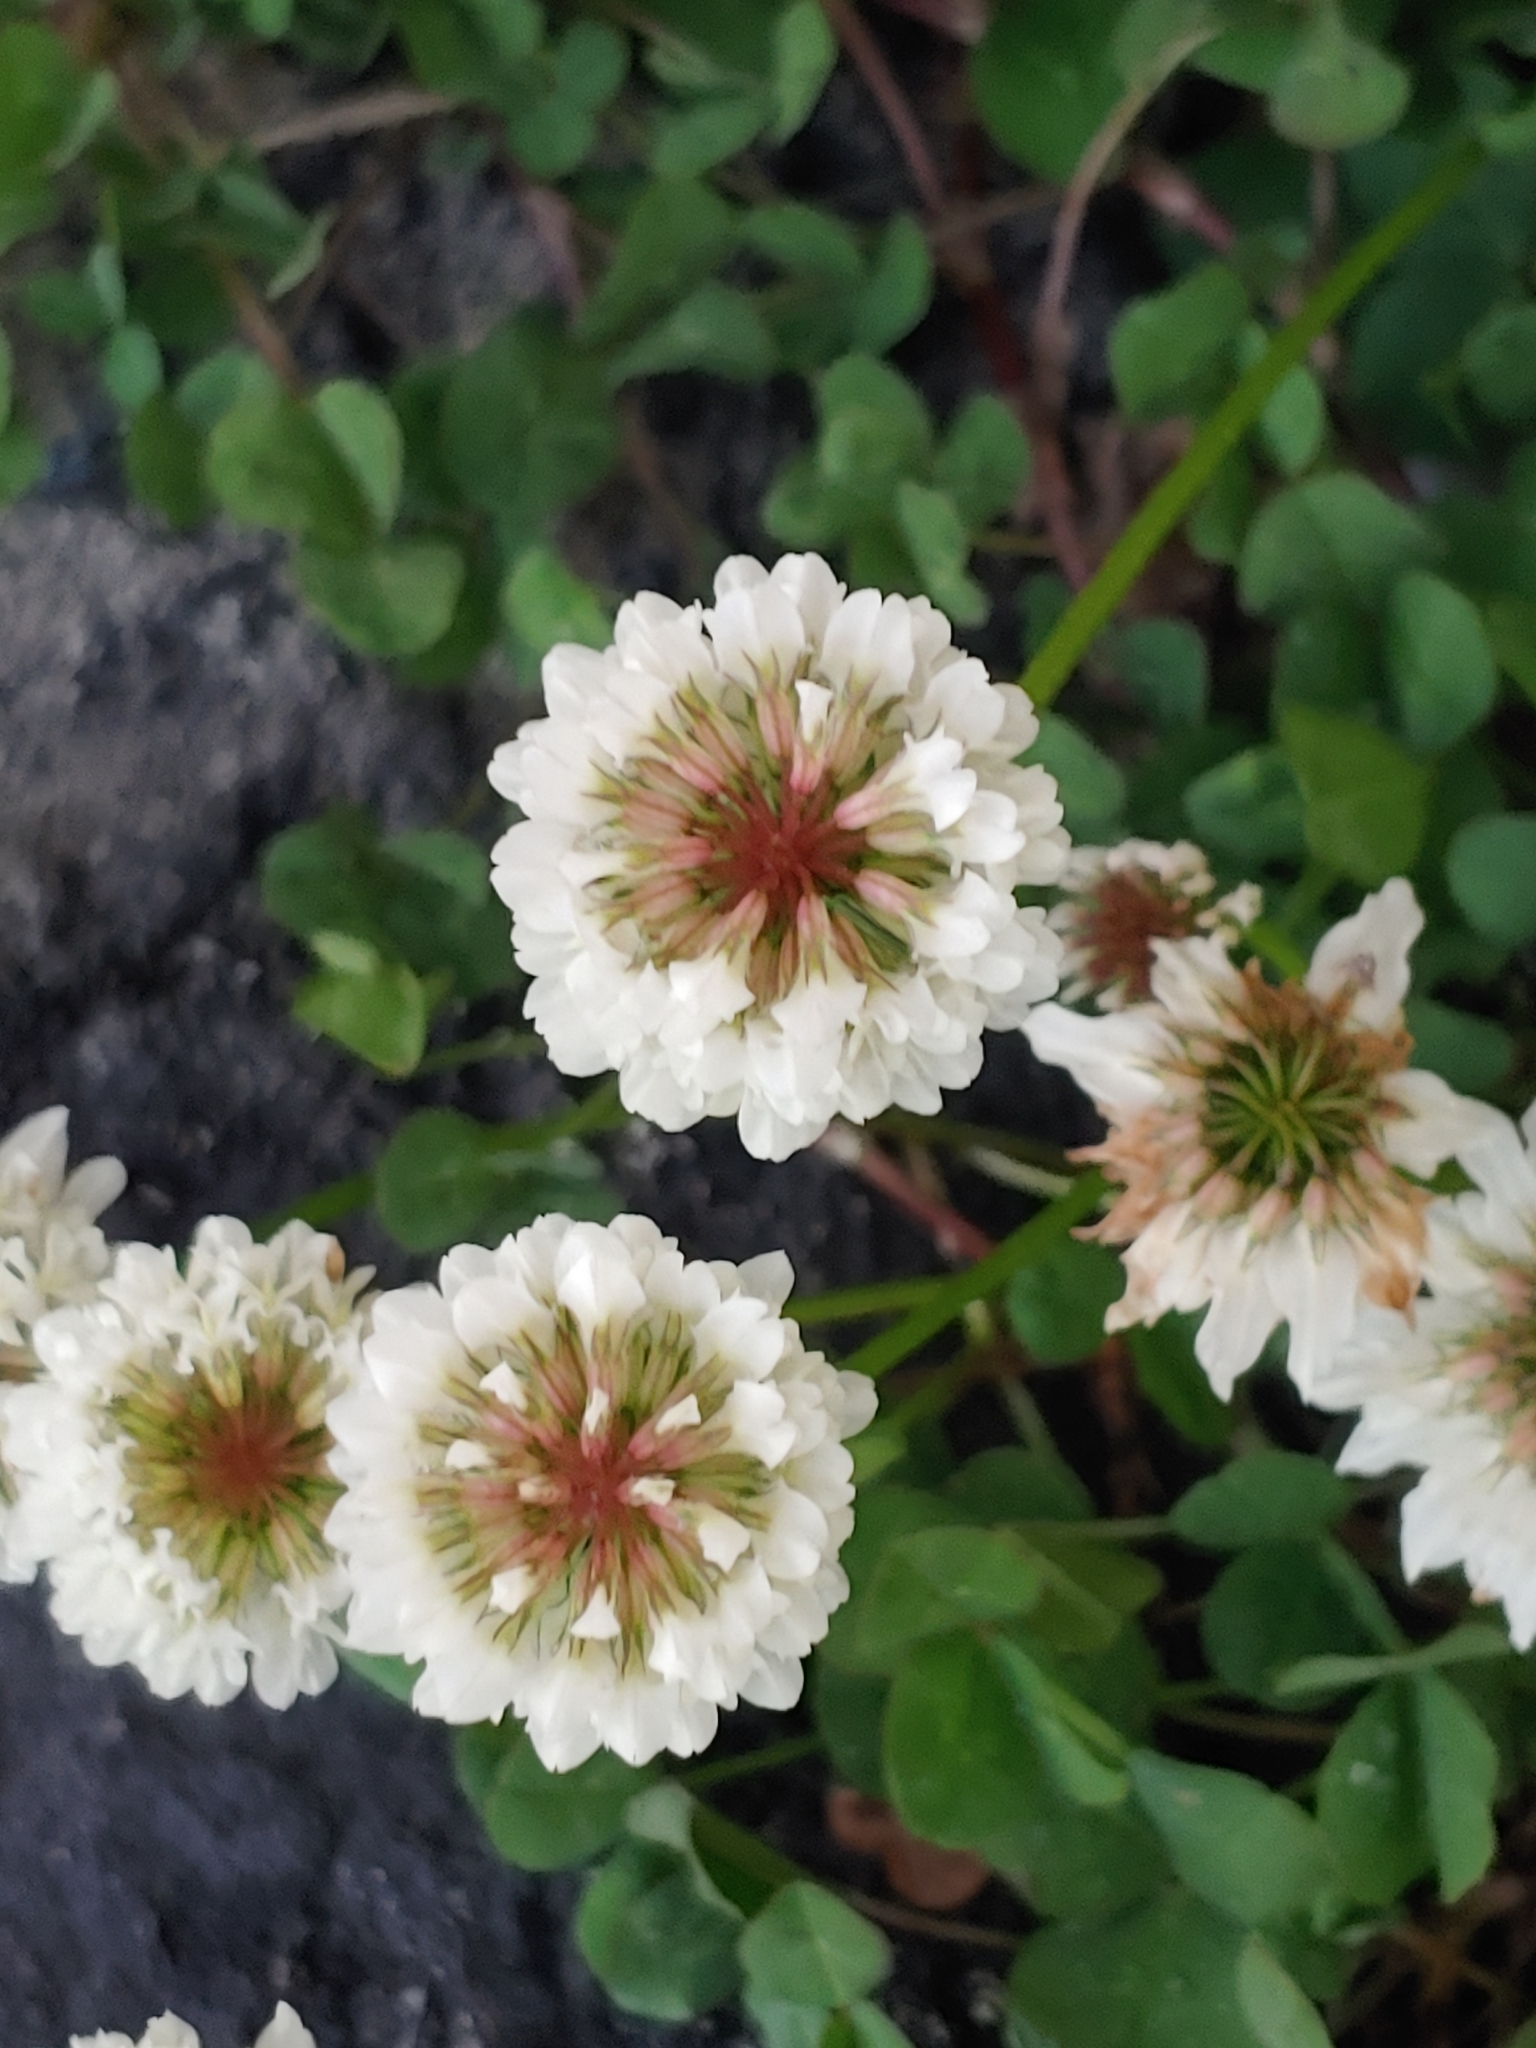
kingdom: Plantae
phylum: Tracheophyta
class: Magnoliopsida
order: Fabales
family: Fabaceae
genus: Trifolium
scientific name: Trifolium repens
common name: White clover
